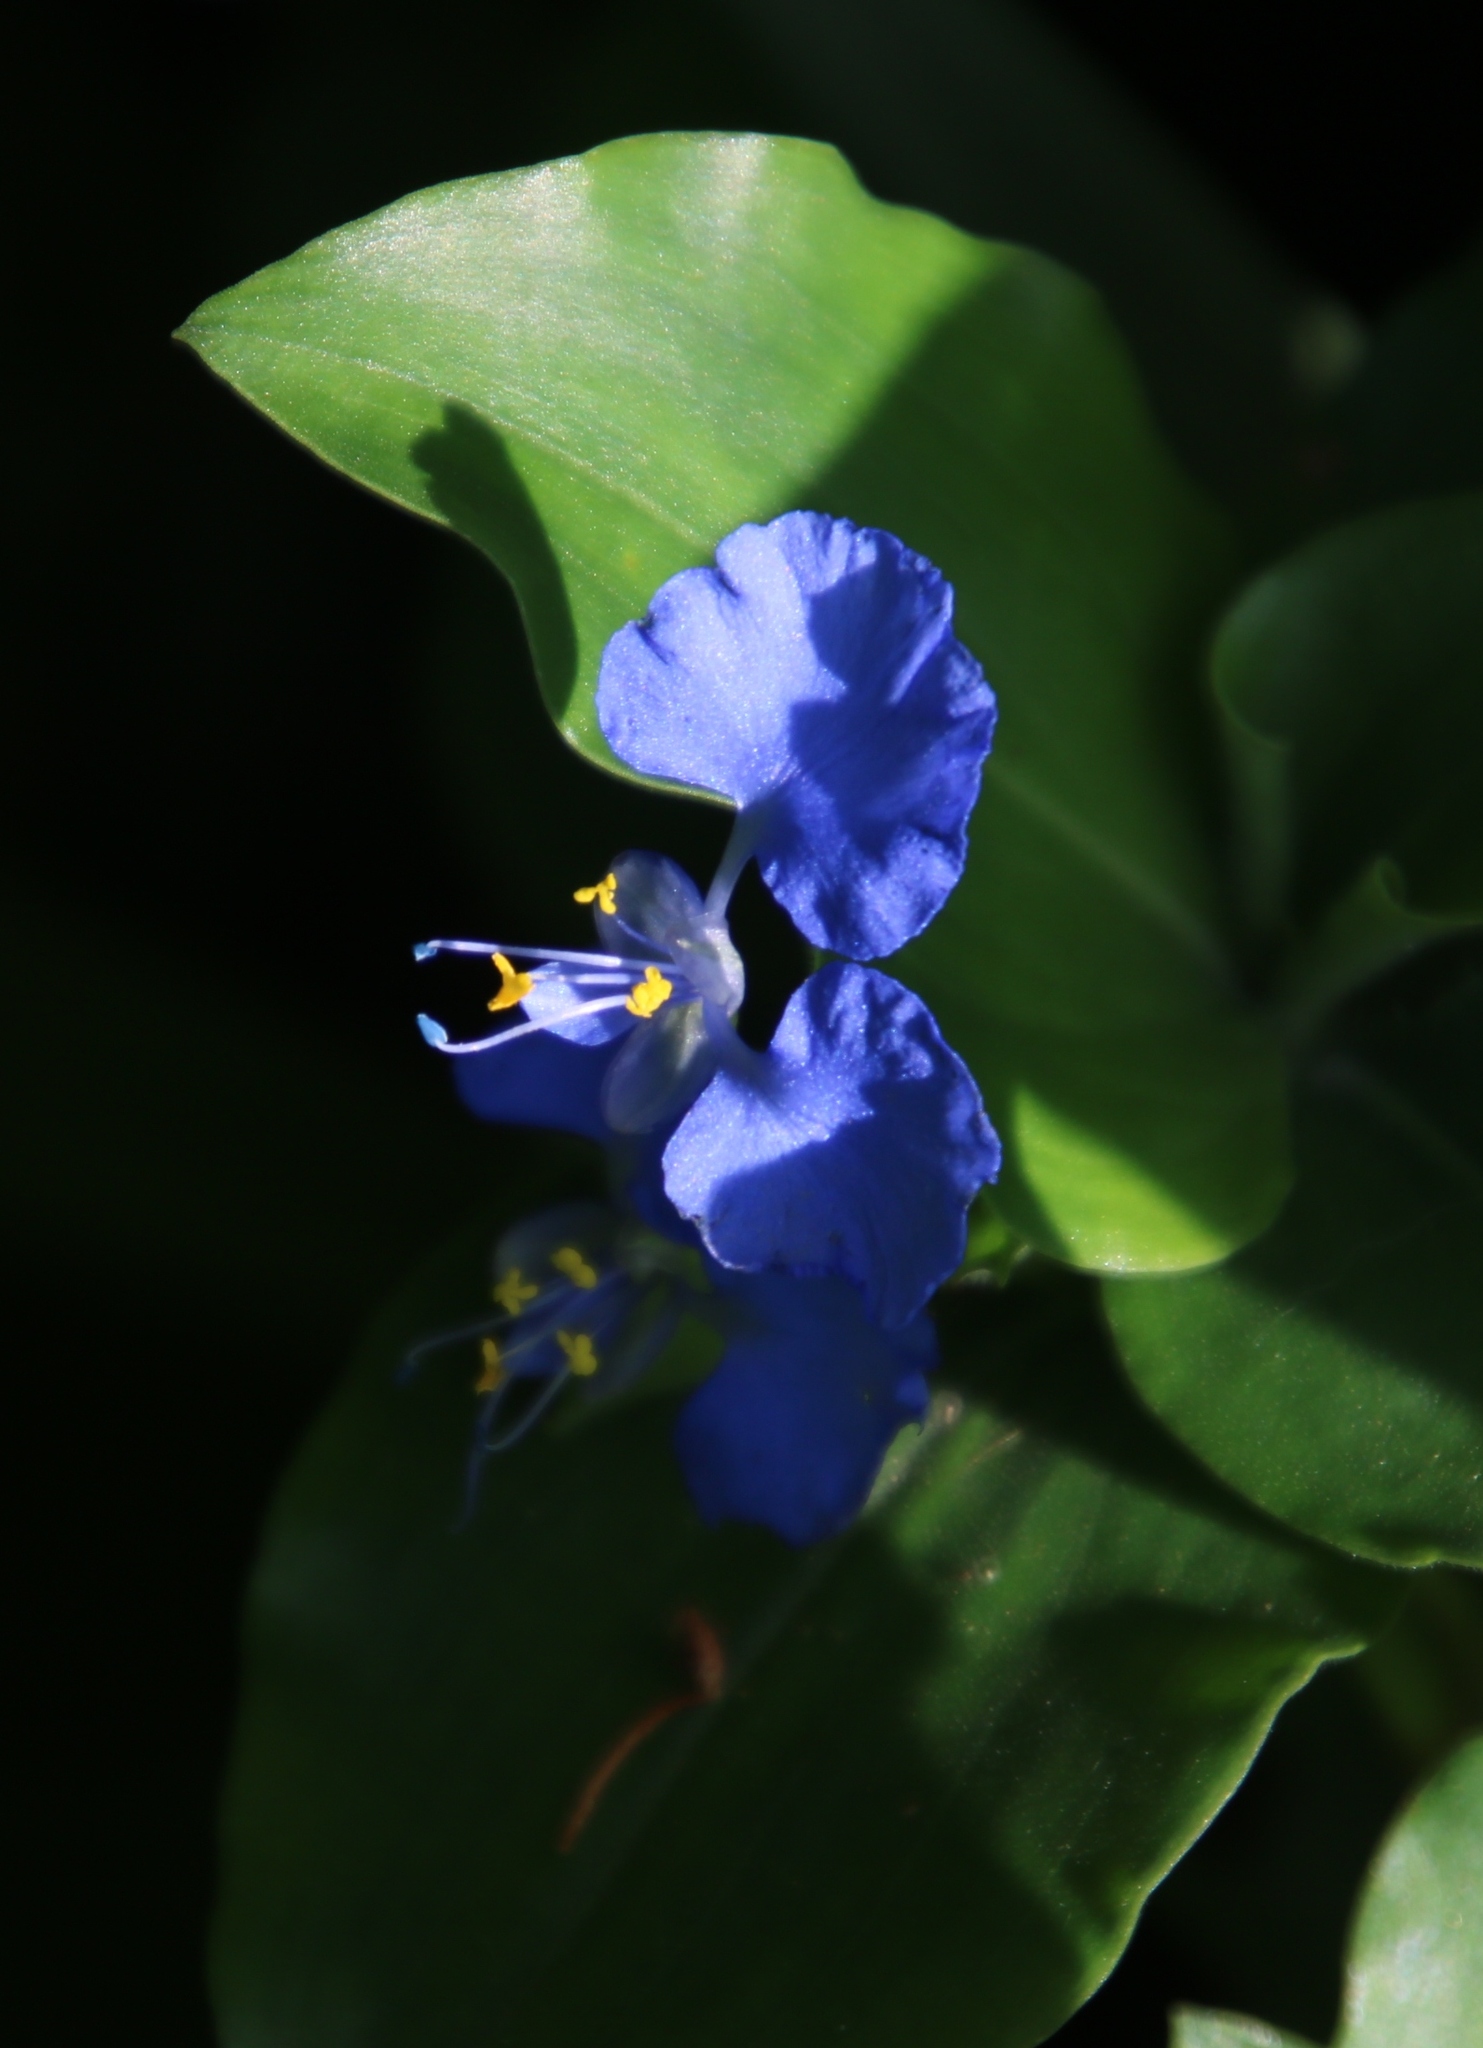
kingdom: Plantae
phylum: Tracheophyta
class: Liliopsida
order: Commelinales
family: Commelinaceae
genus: Commelina
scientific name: Commelina benghalensis
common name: Jio
